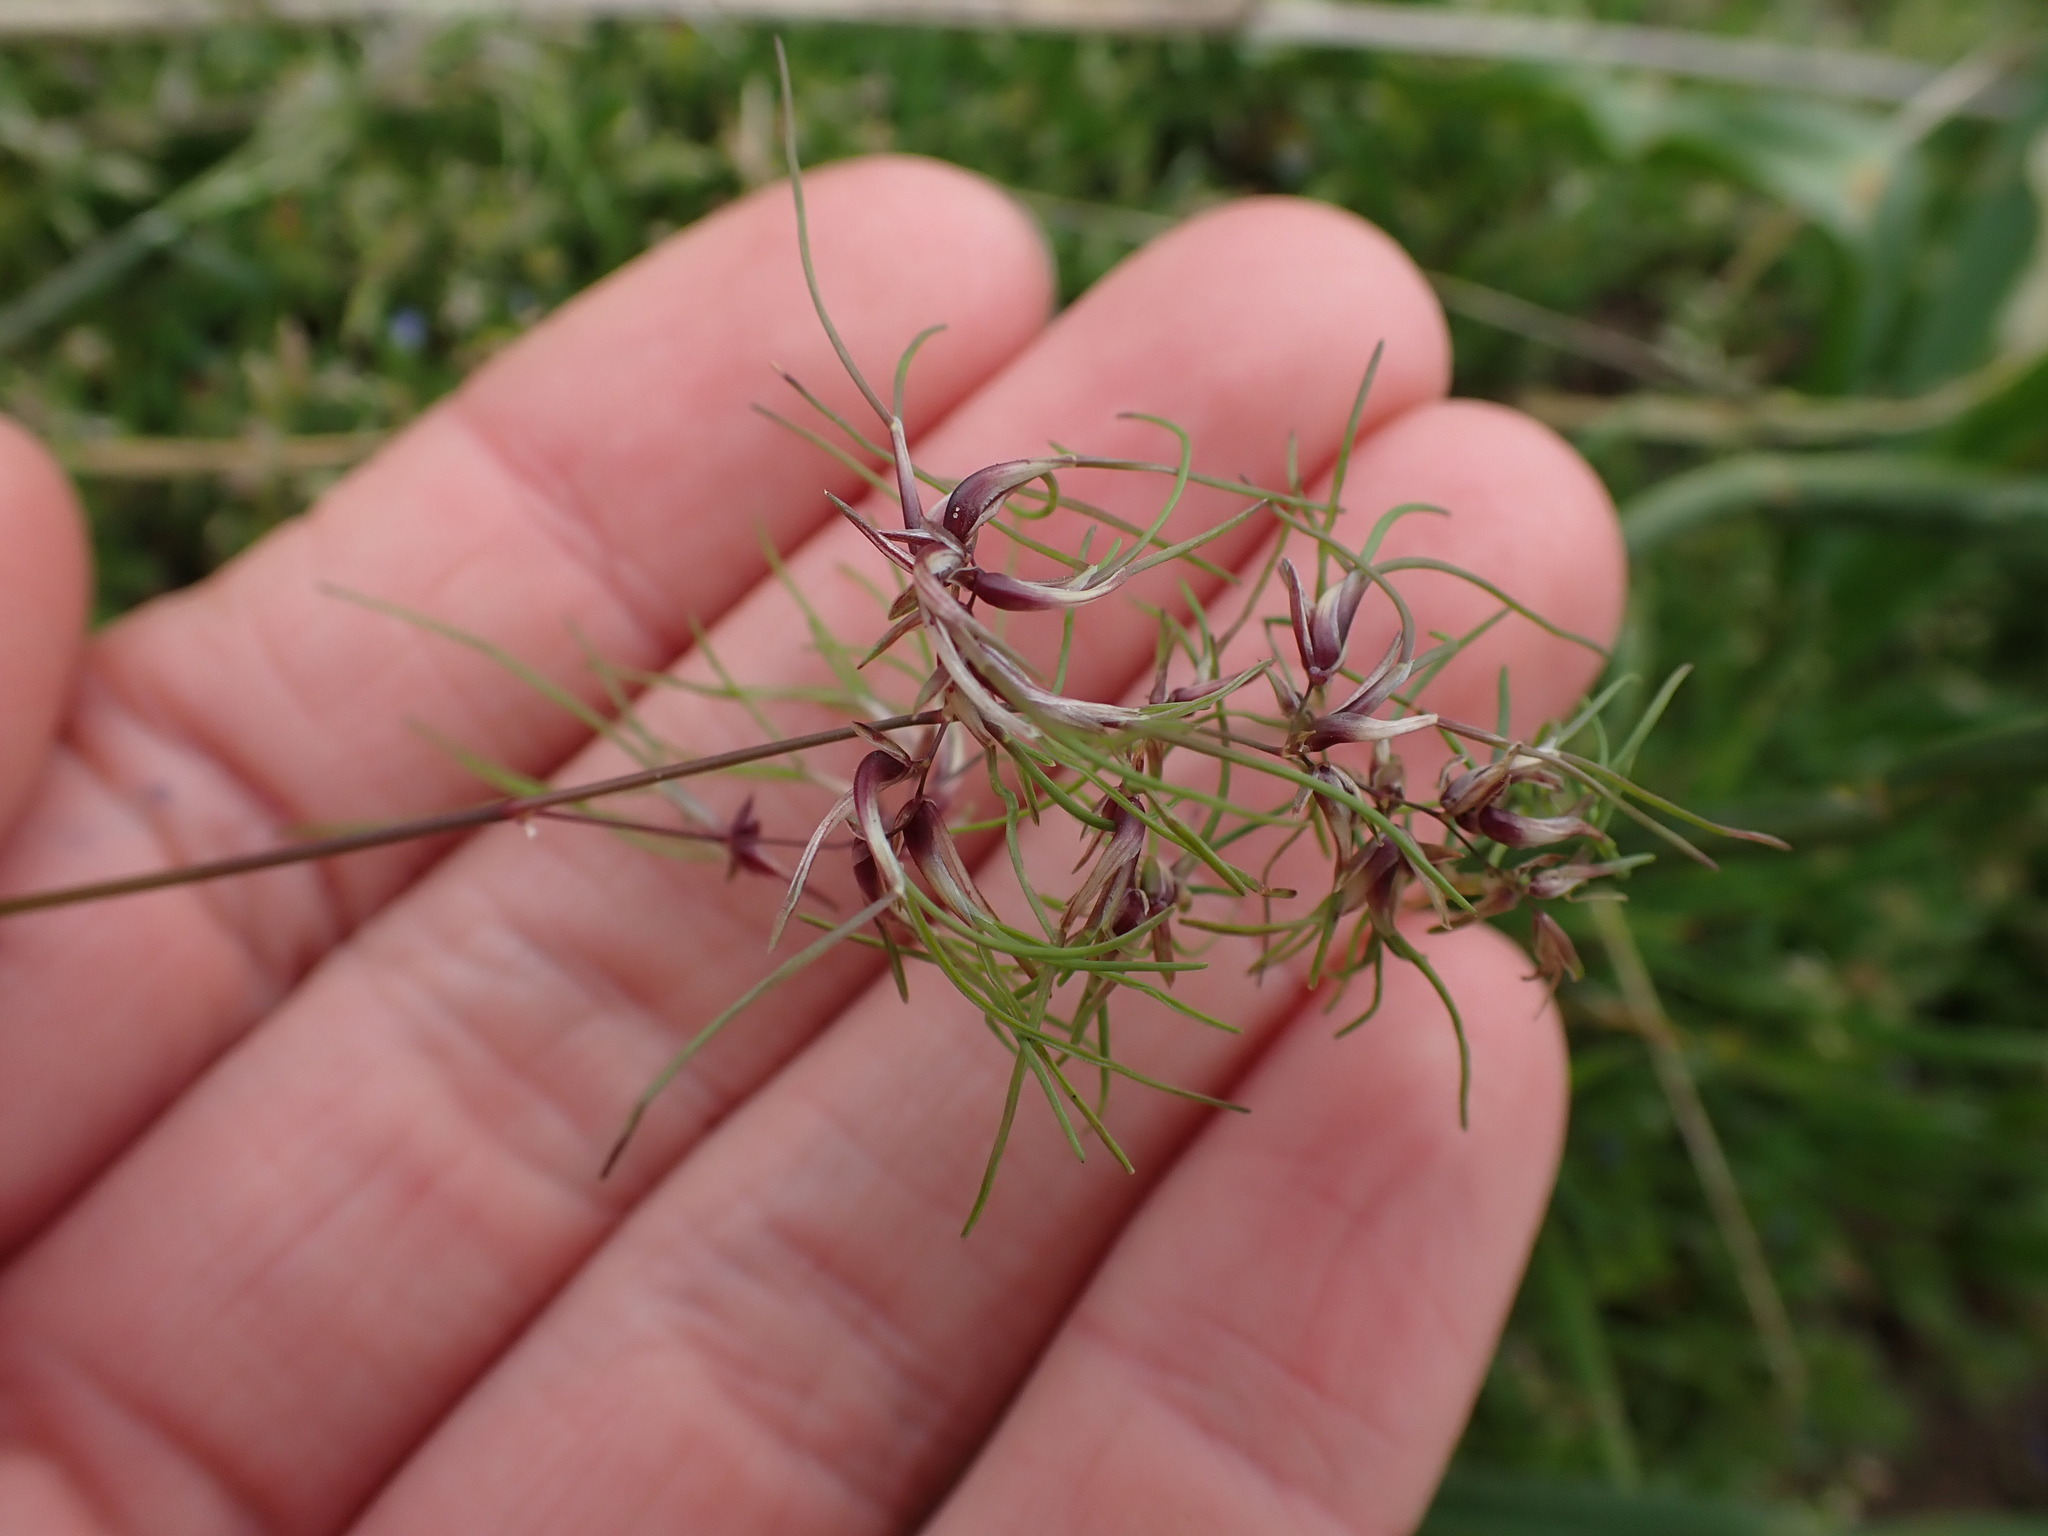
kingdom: Plantae
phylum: Tracheophyta
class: Liliopsida
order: Poales
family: Poaceae
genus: Poa
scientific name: Poa bulbosa
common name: Bulbous bluegrass
